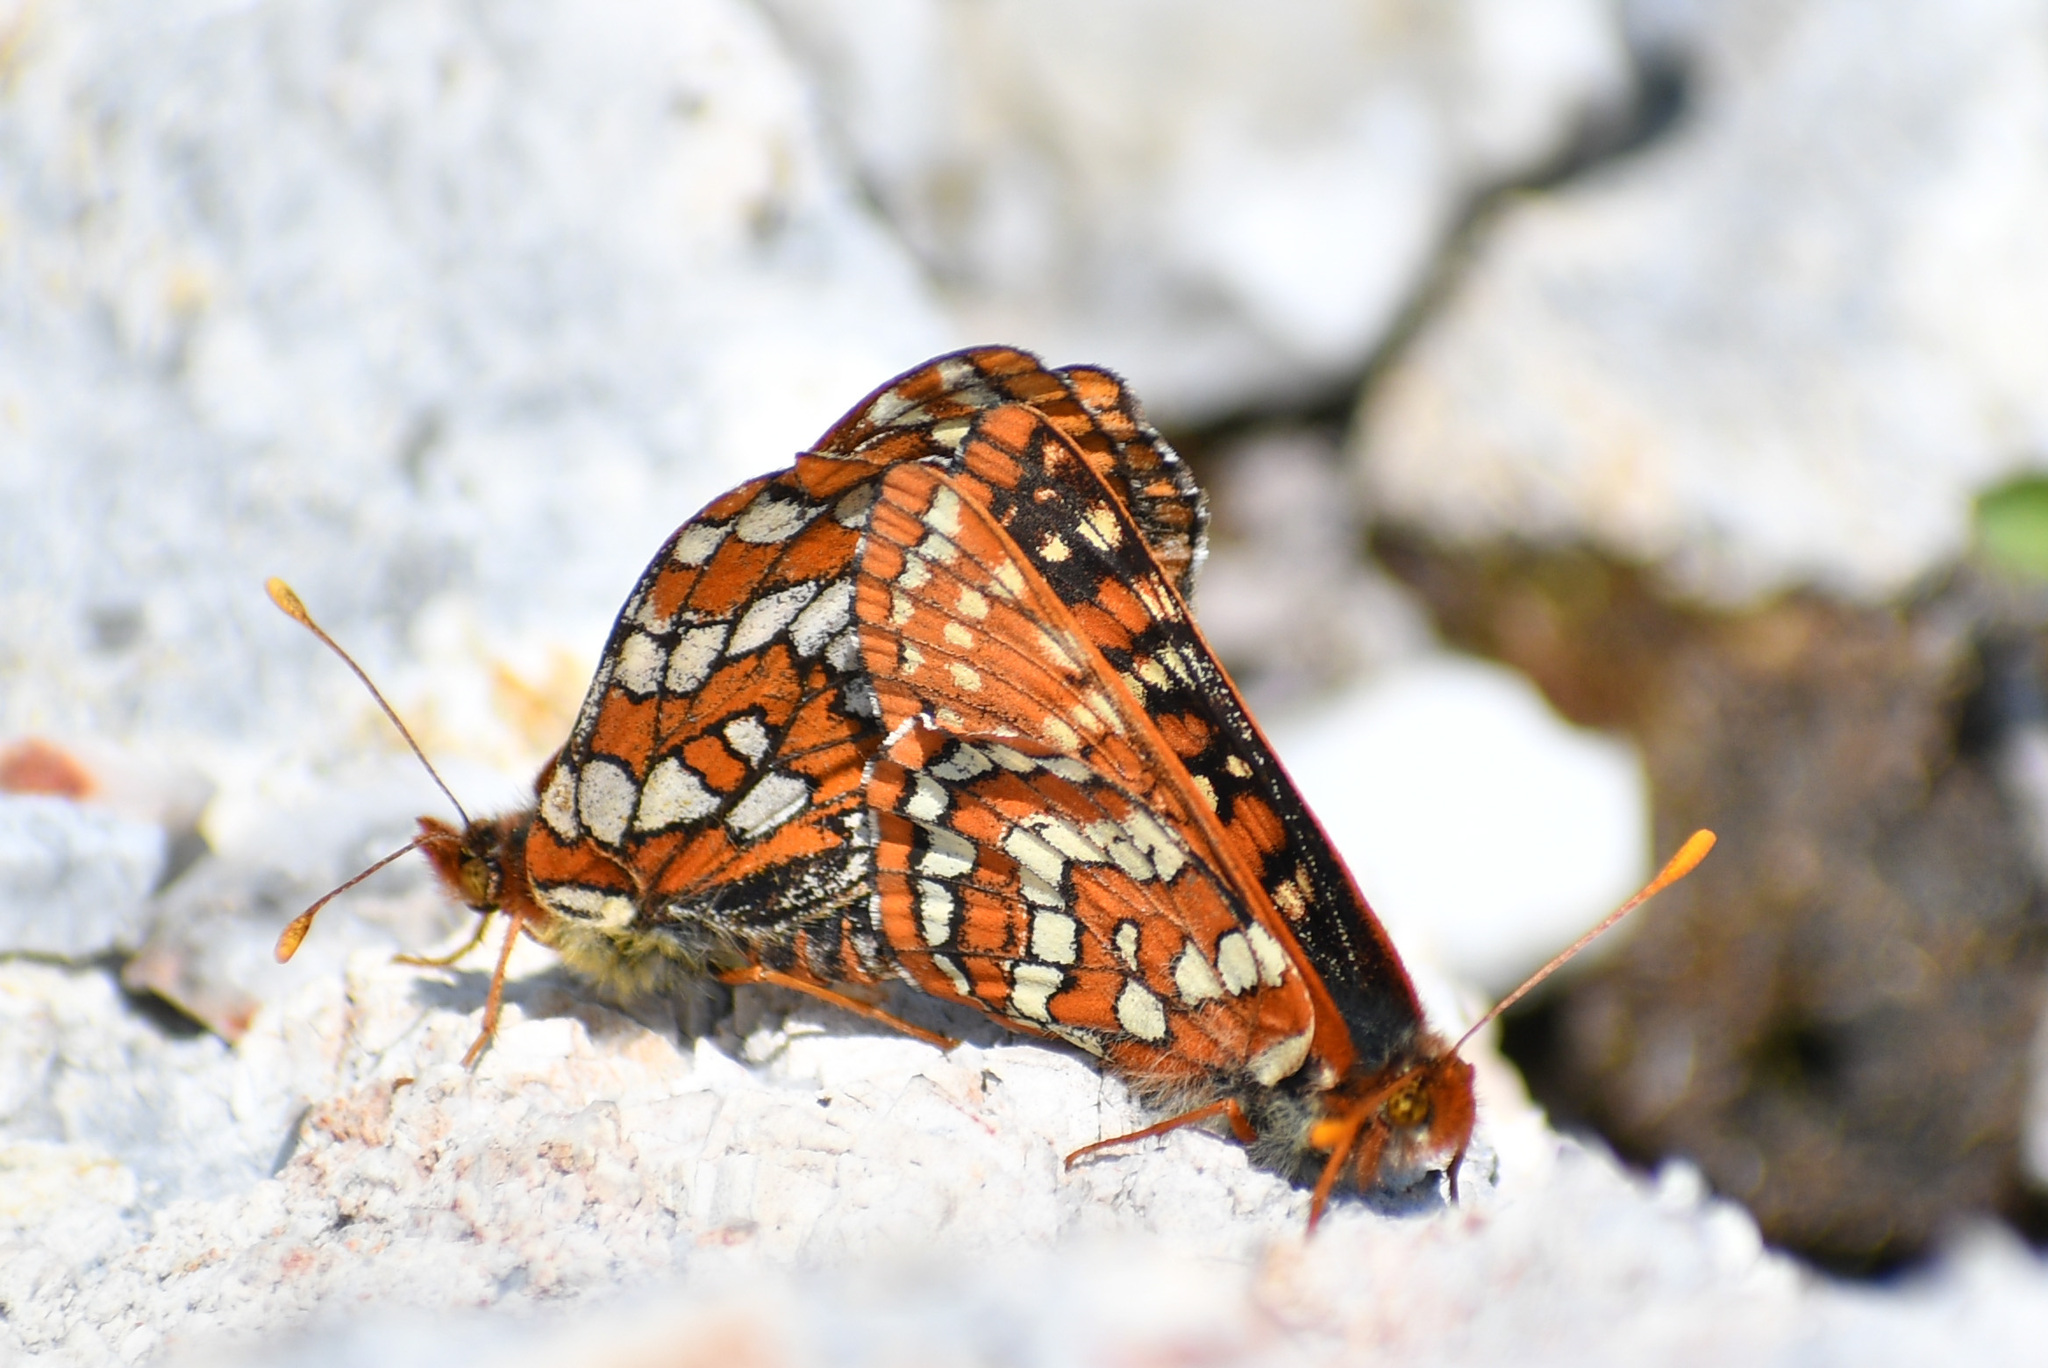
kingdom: Animalia
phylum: Arthropoda
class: Insecta
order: Lepidoptera
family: Nymphalidae
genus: Occidryas
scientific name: Occidryas anicia
